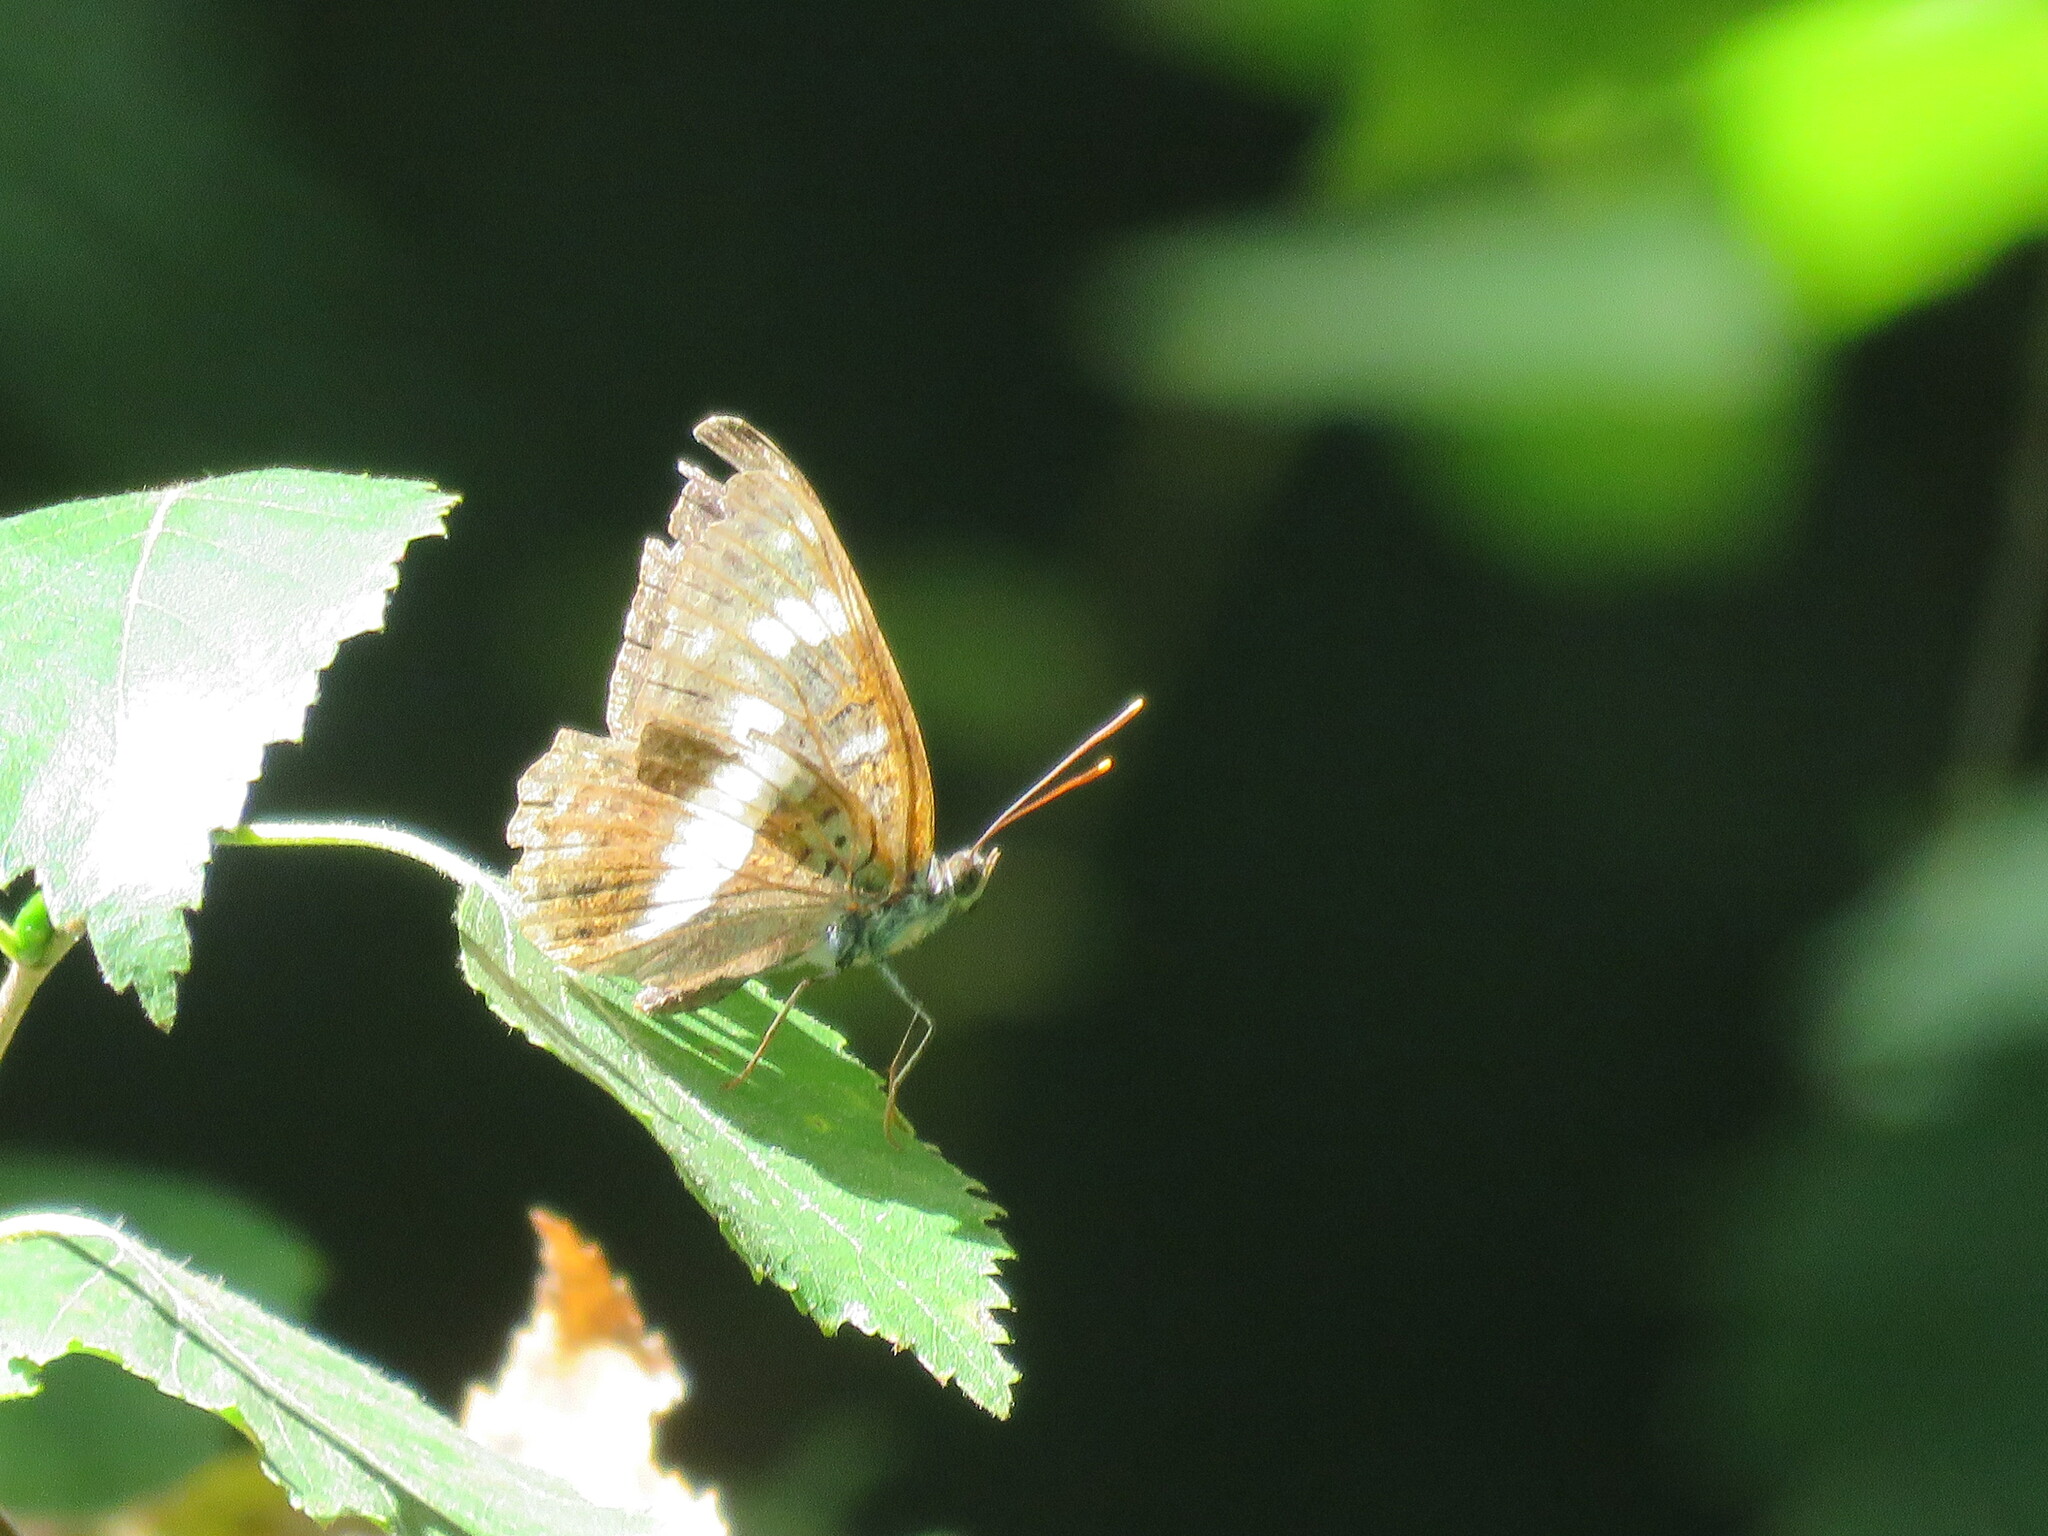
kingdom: Animalia
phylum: Arthropoda
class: Insecta
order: Lepidoptera
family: Nymphalidae
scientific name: Nymphalidae
